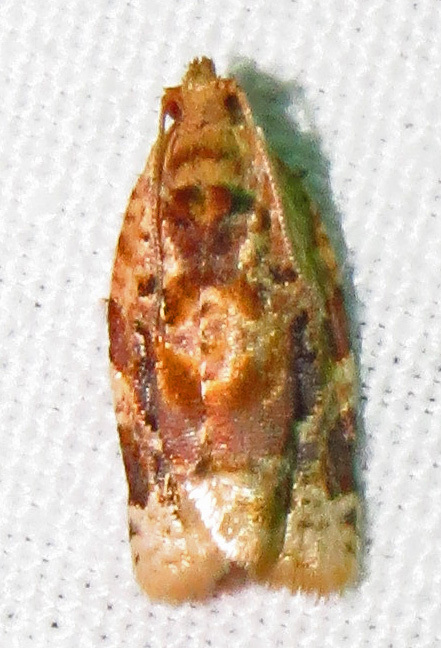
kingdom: Animalia
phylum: Arthropoda
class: Insecta
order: Lepidoptera
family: Tortricidae
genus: Argyrotaenia
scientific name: Argyrotaenia velutinana
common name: Red-banded leafroller moth
